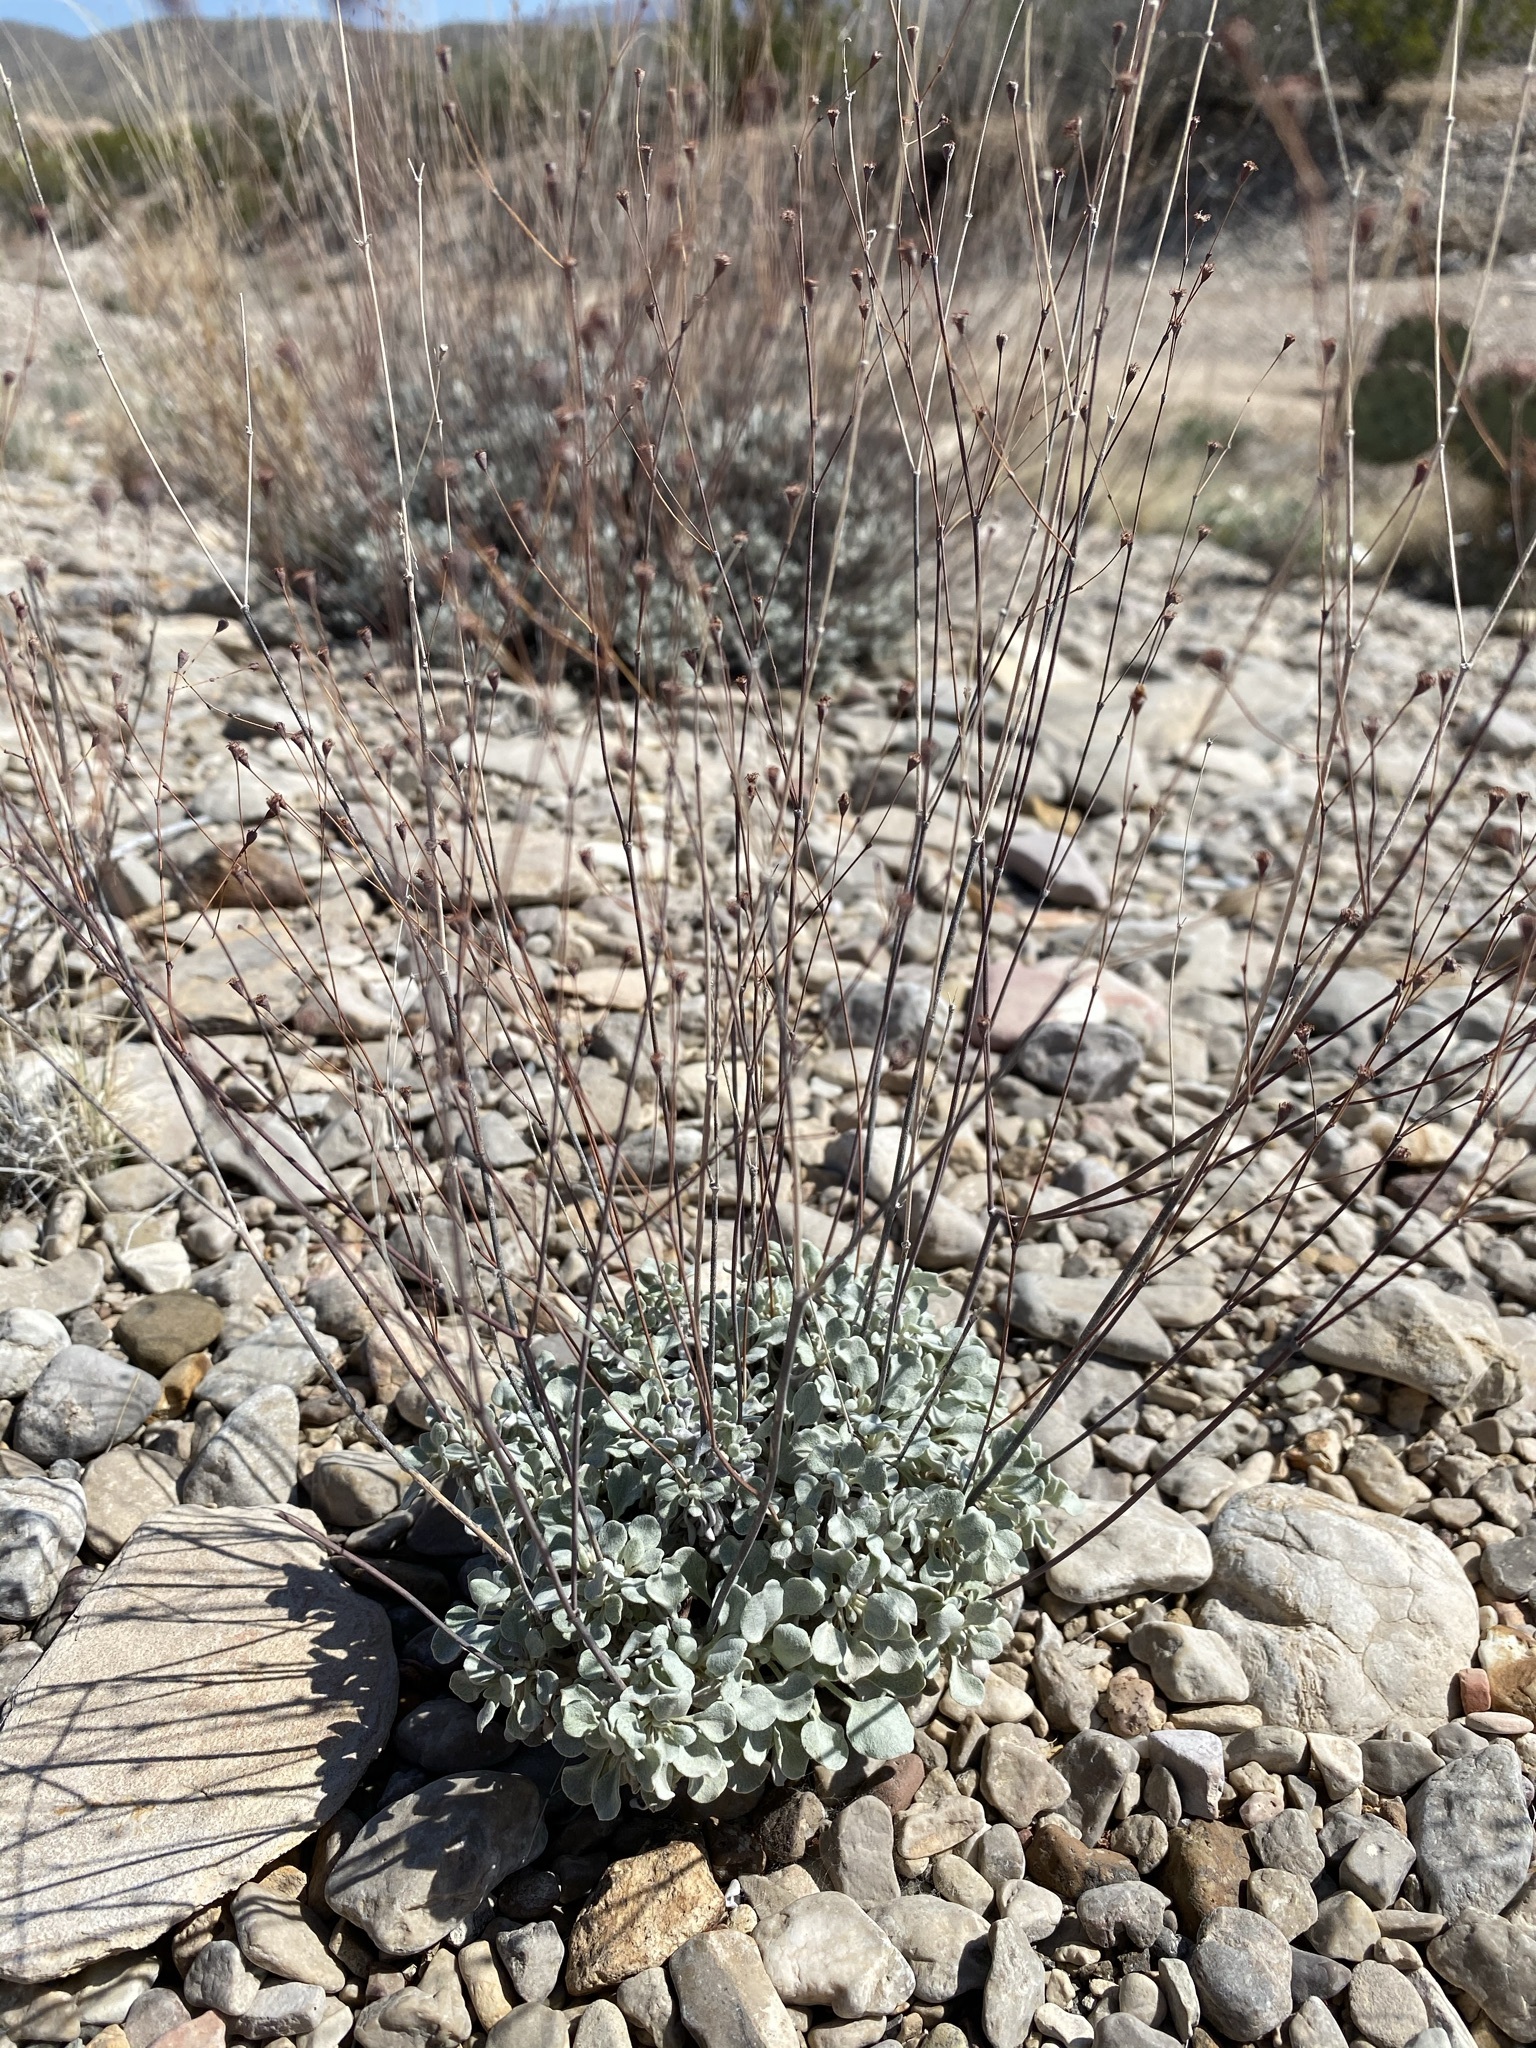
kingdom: Plantae
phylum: Tracheophyta
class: Magnoliopsida
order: Caryophyllales
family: Polygonaceae
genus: Eriogonum
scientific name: Eriogonum tenellum
